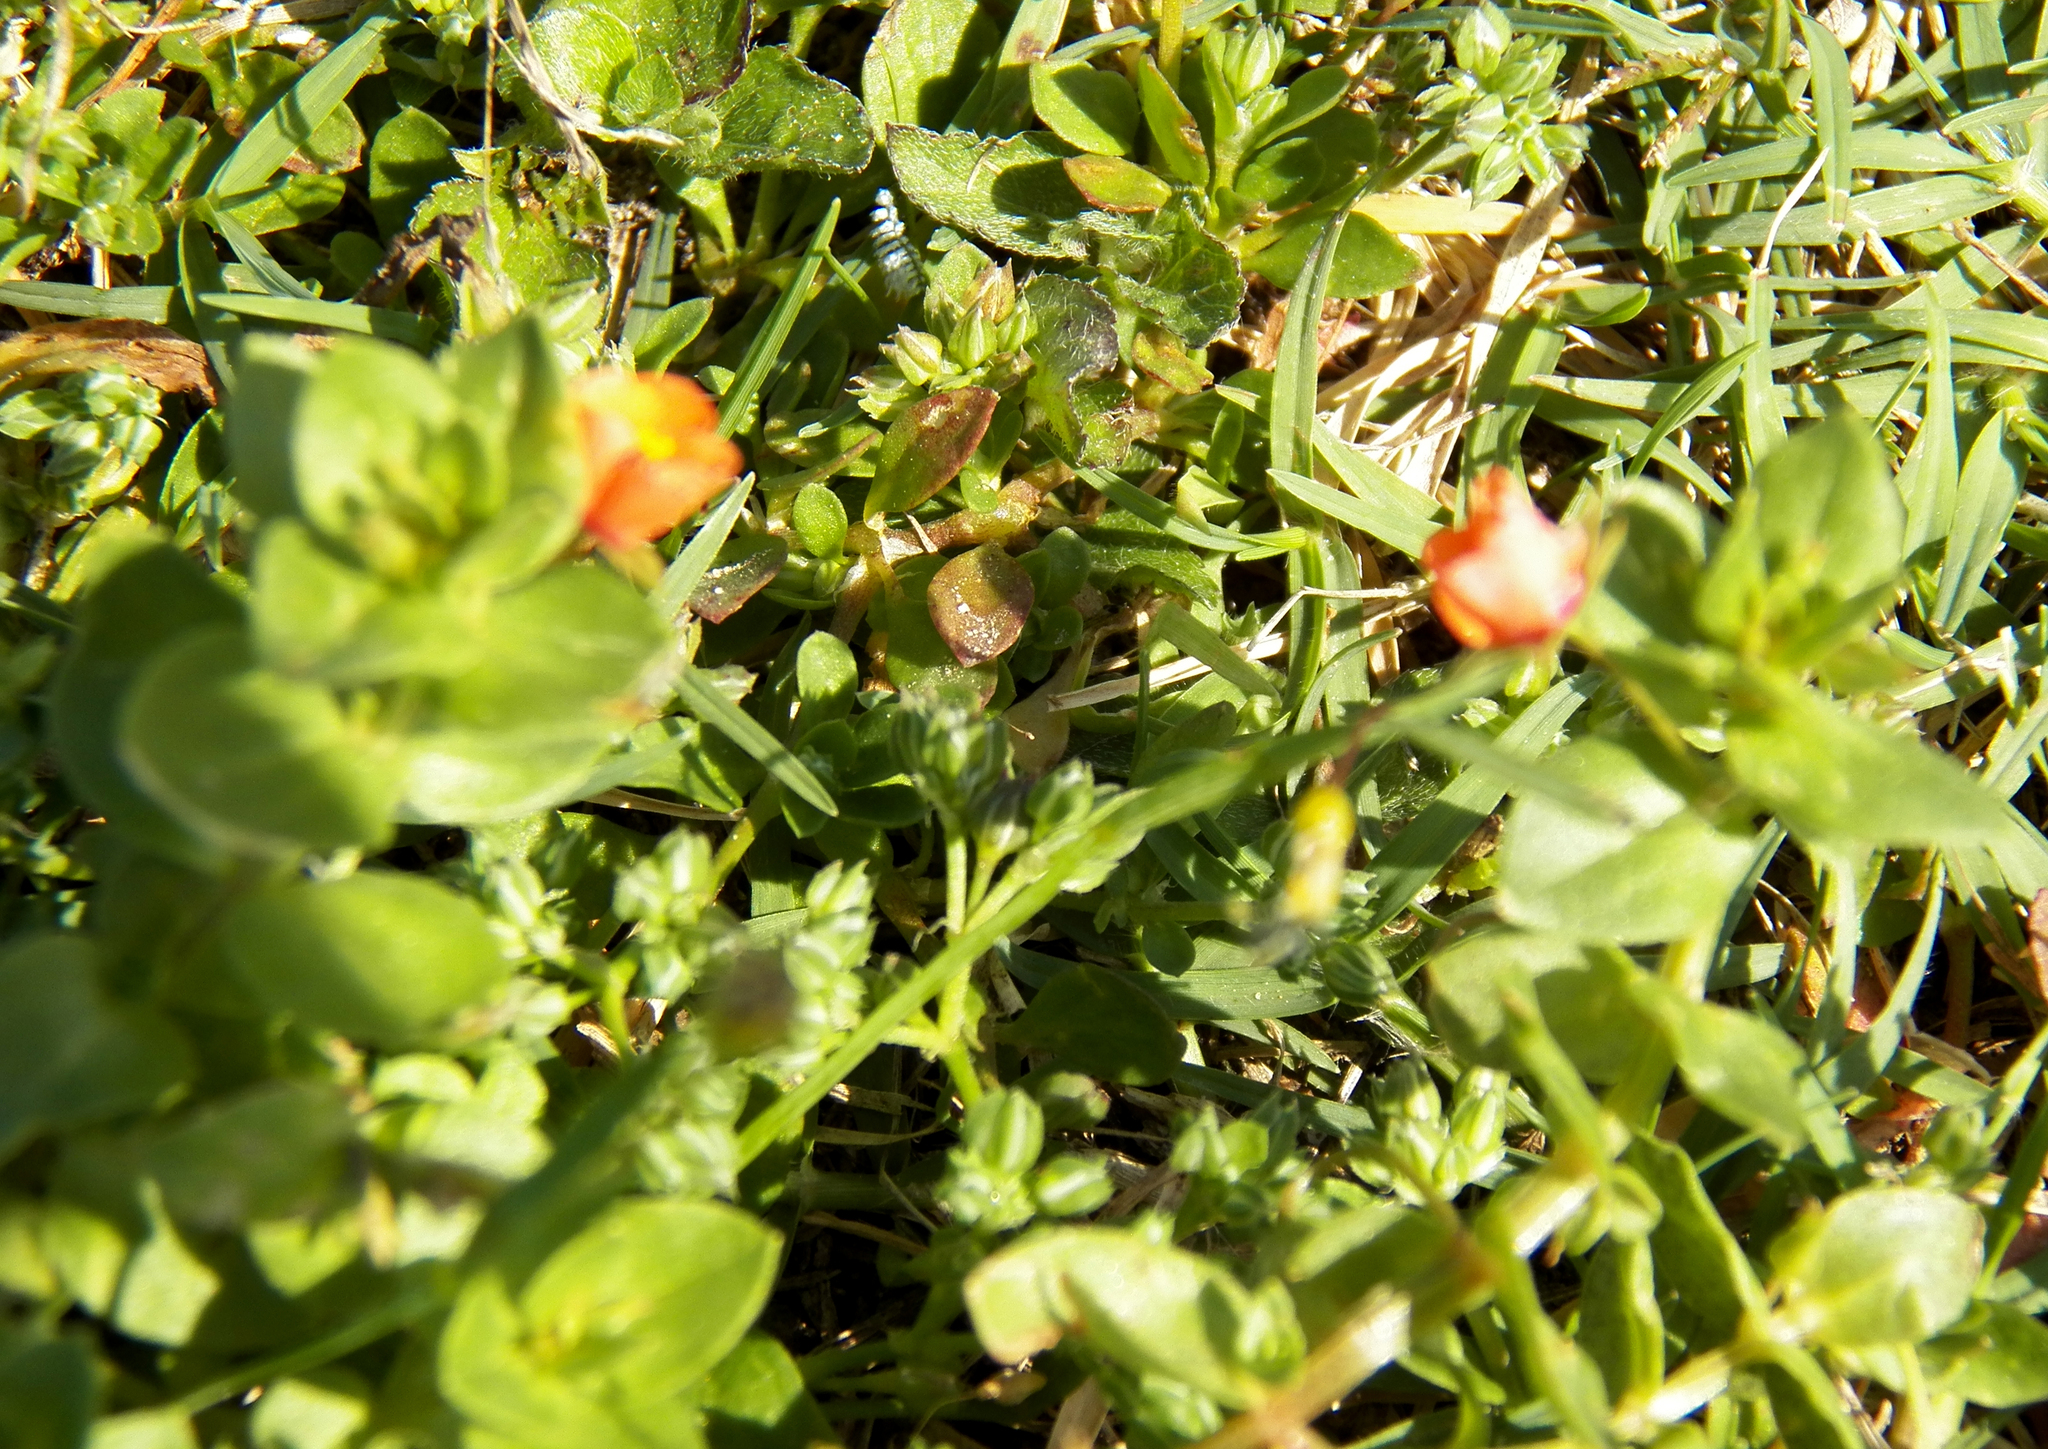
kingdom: Plantae
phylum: Tracheophyta
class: Magnoliopsida
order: Ericales
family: Primulaceae
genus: Lysimachia
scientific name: Lysimachia arvensis
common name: Scarlet pimpernel
